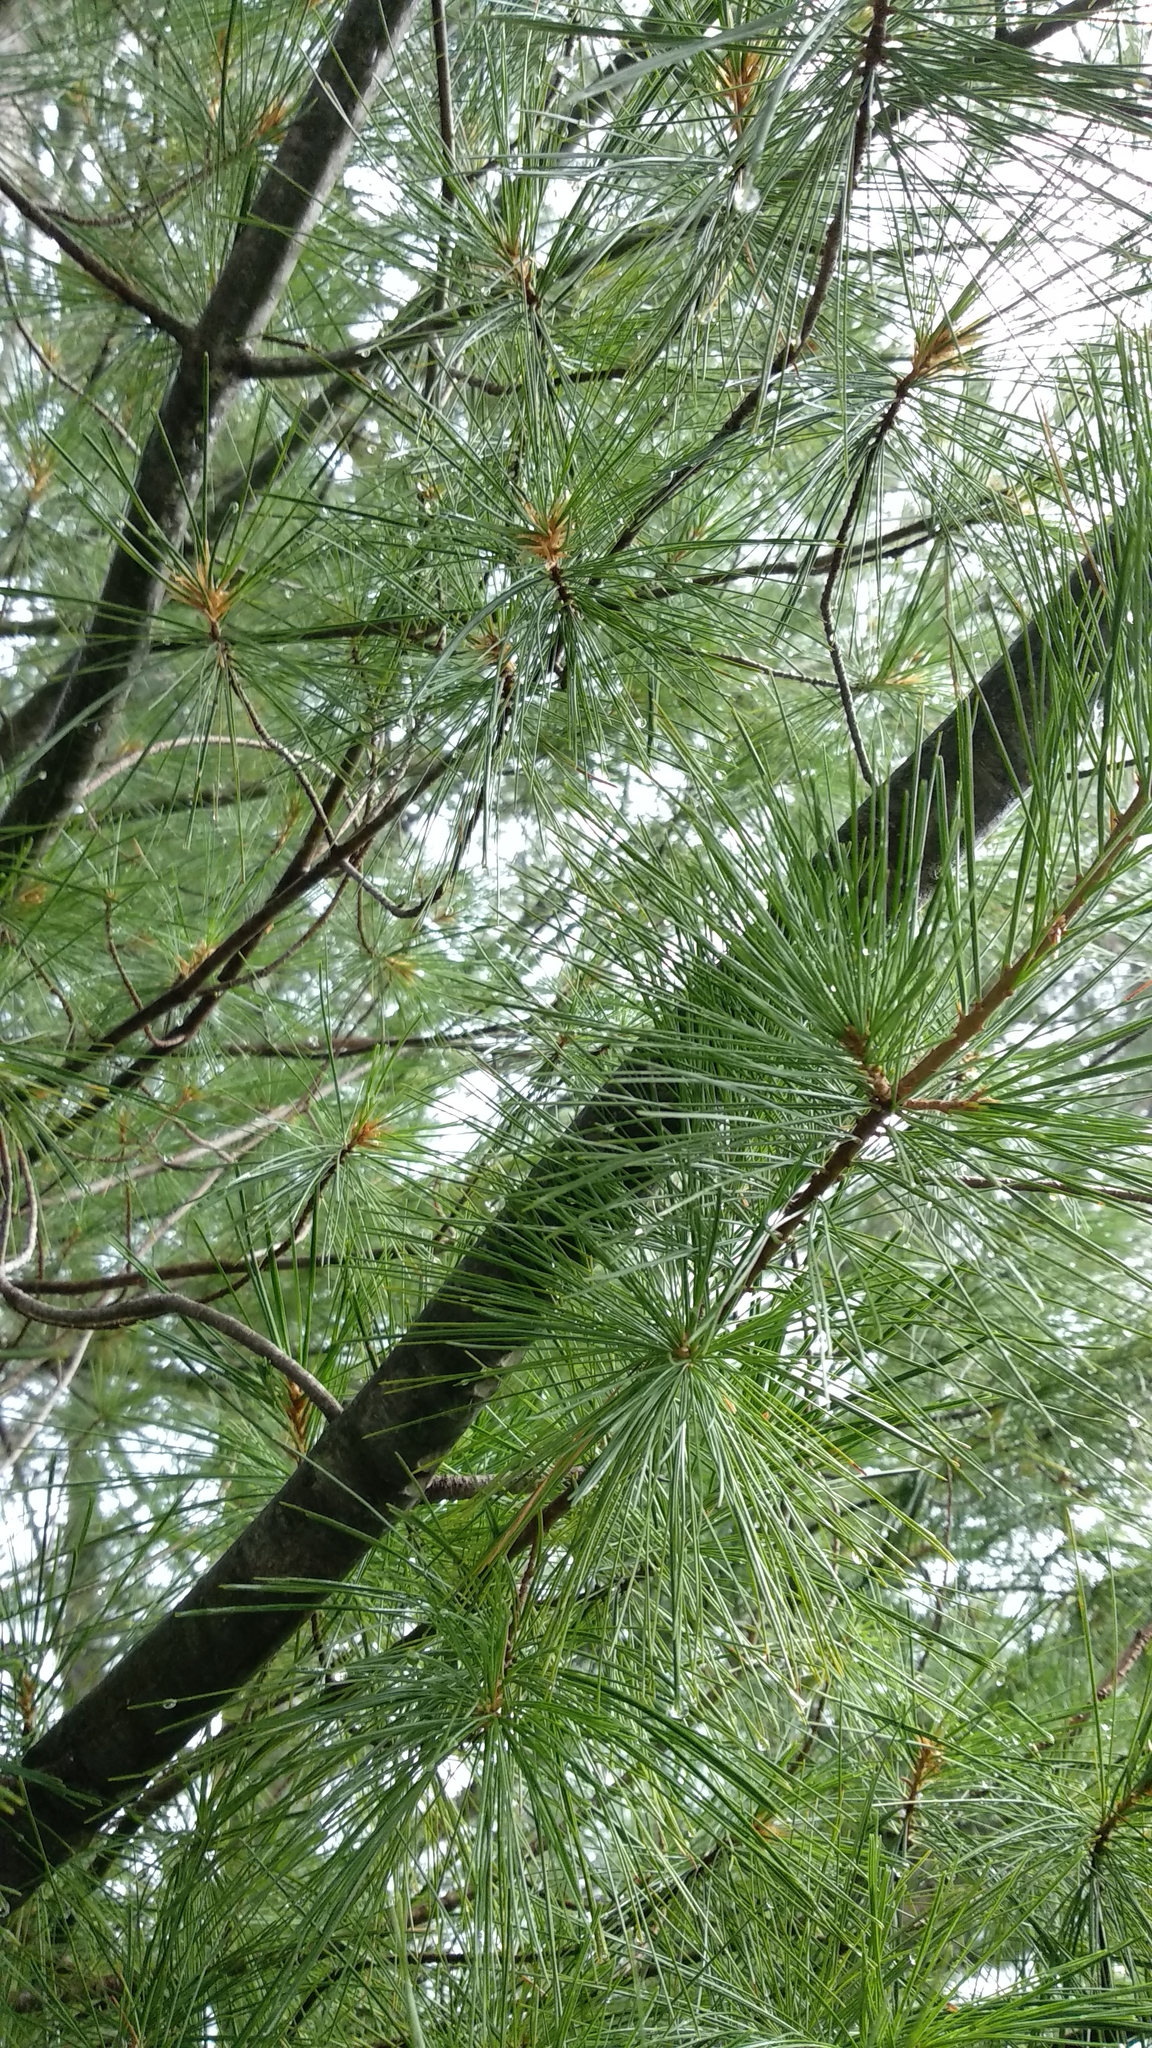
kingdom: Plantae
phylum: Tracheophyta
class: Pinopsida
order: Pinales
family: Pinaceae
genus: Pinus
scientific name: Pinus strobus
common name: Weymouth pine
